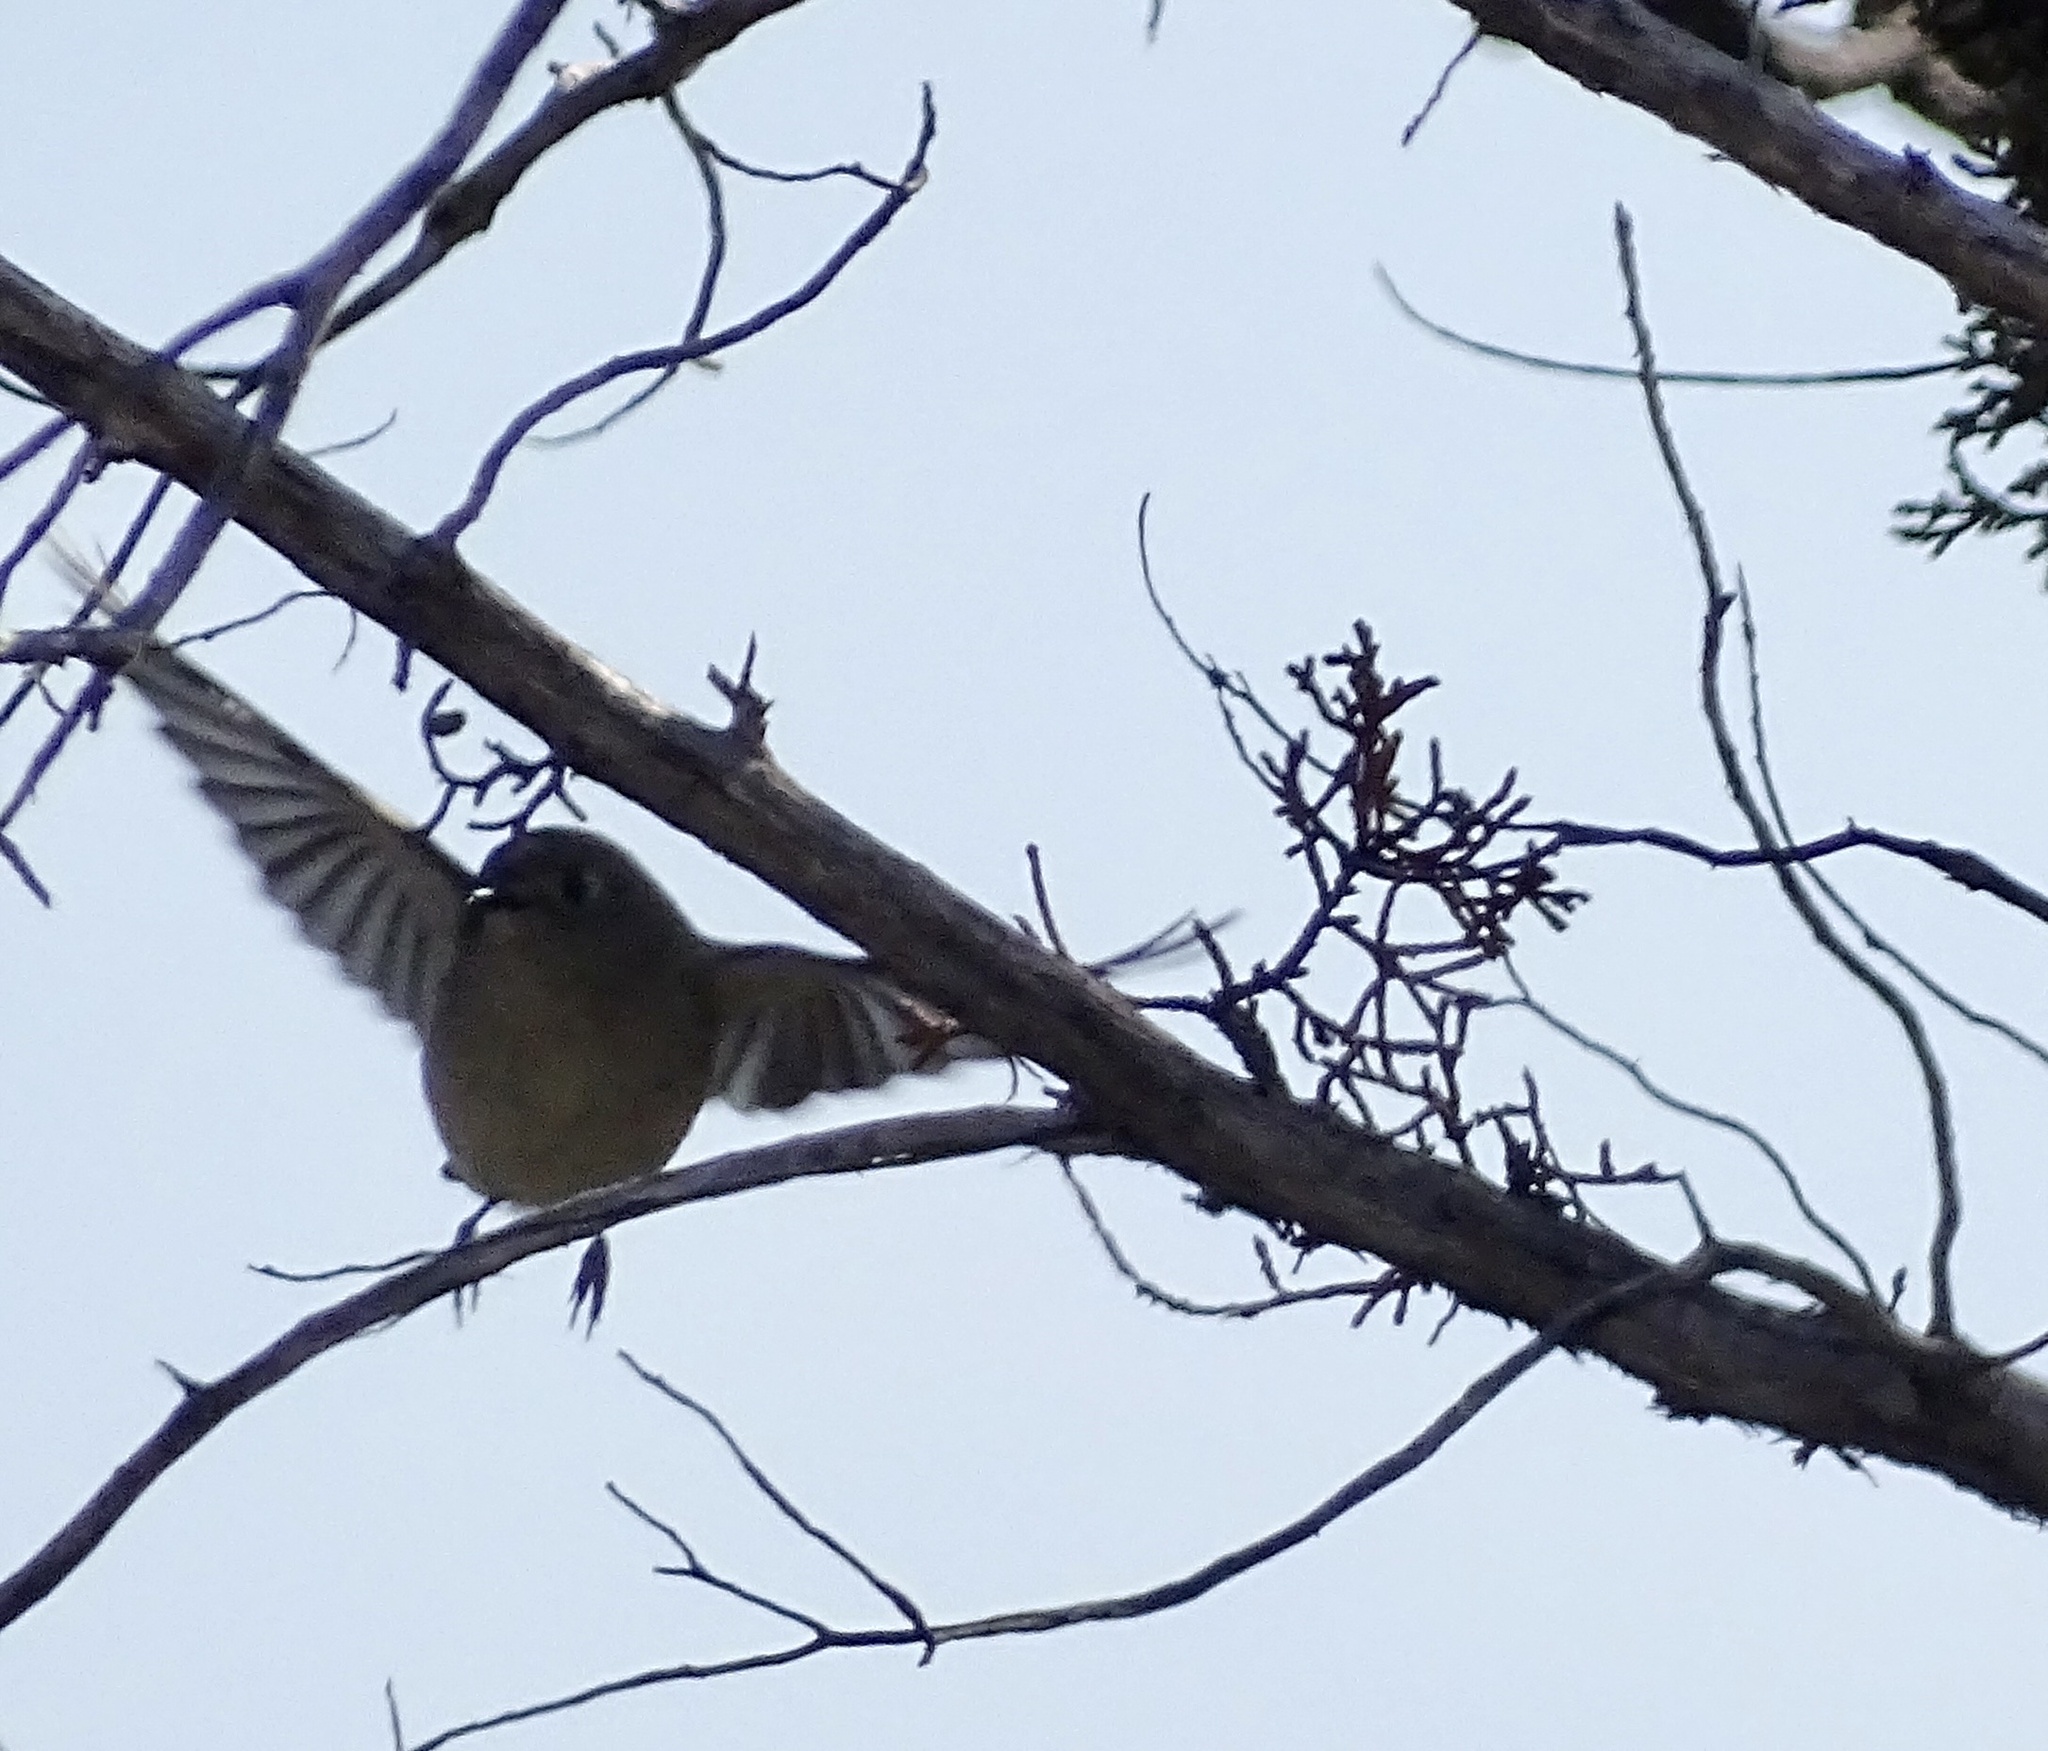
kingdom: Animalia
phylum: Chordata
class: Aves
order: Passeriformes
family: Regulidae
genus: Regulus
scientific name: Regulus calendula
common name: Ruby-crowned kinglet
